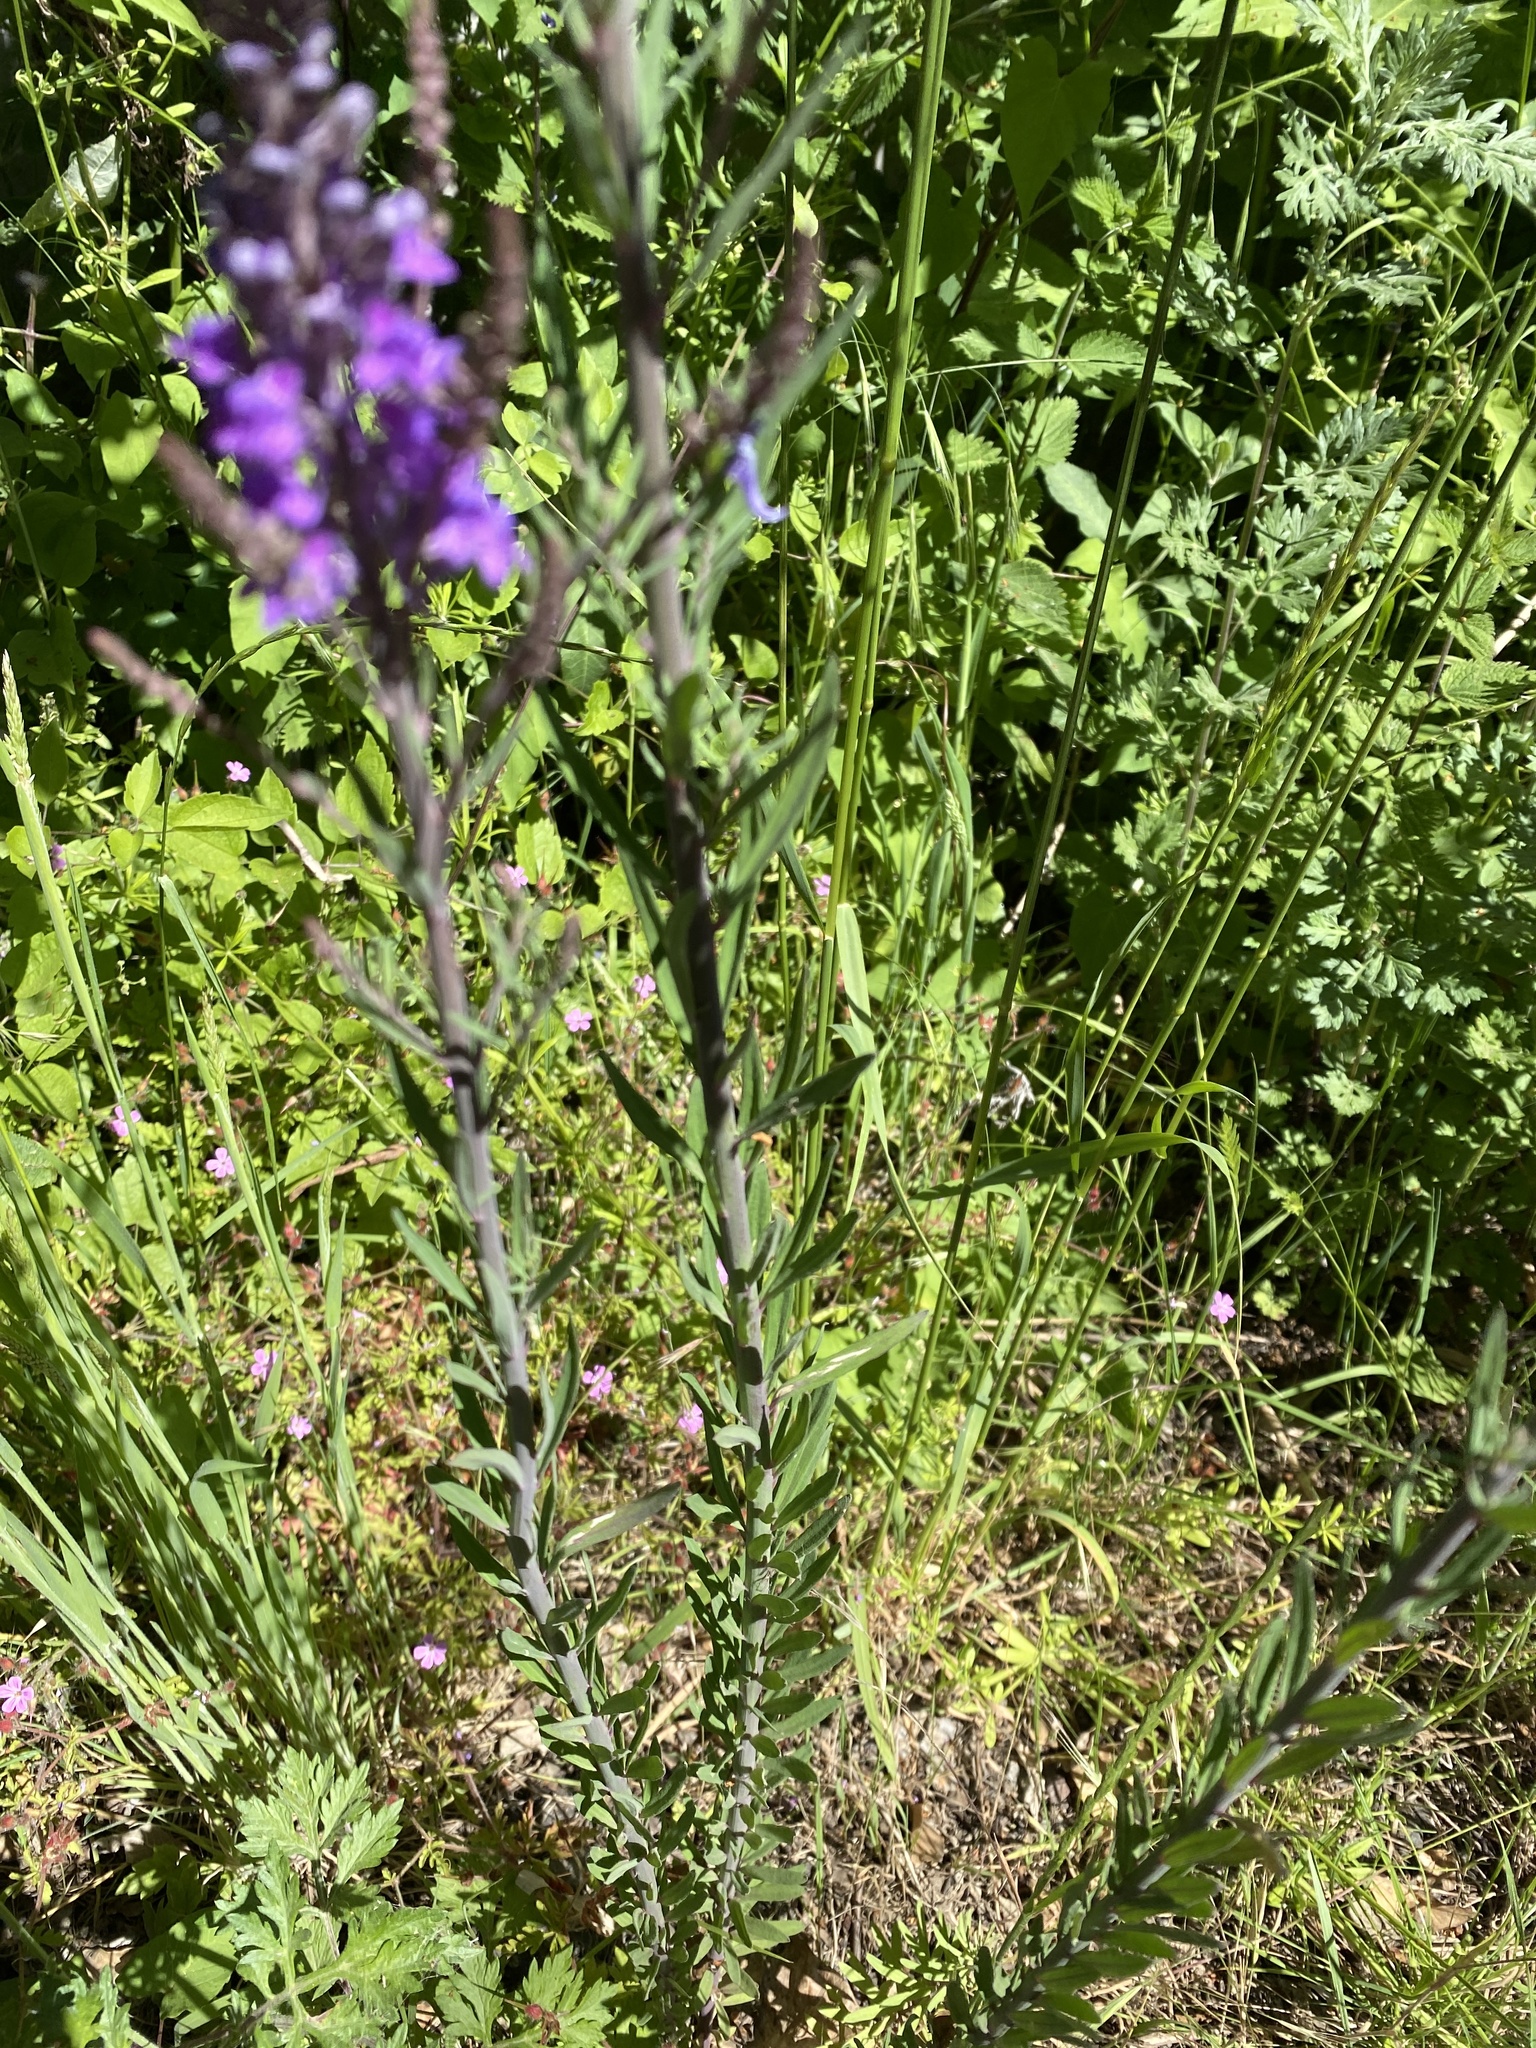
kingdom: Plantae
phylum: Tracheophyta
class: Magnoliopsida
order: Lamiales
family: Plantaginaceae
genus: Linaria
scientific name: Linaria purpurea
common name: Purple toadflax
